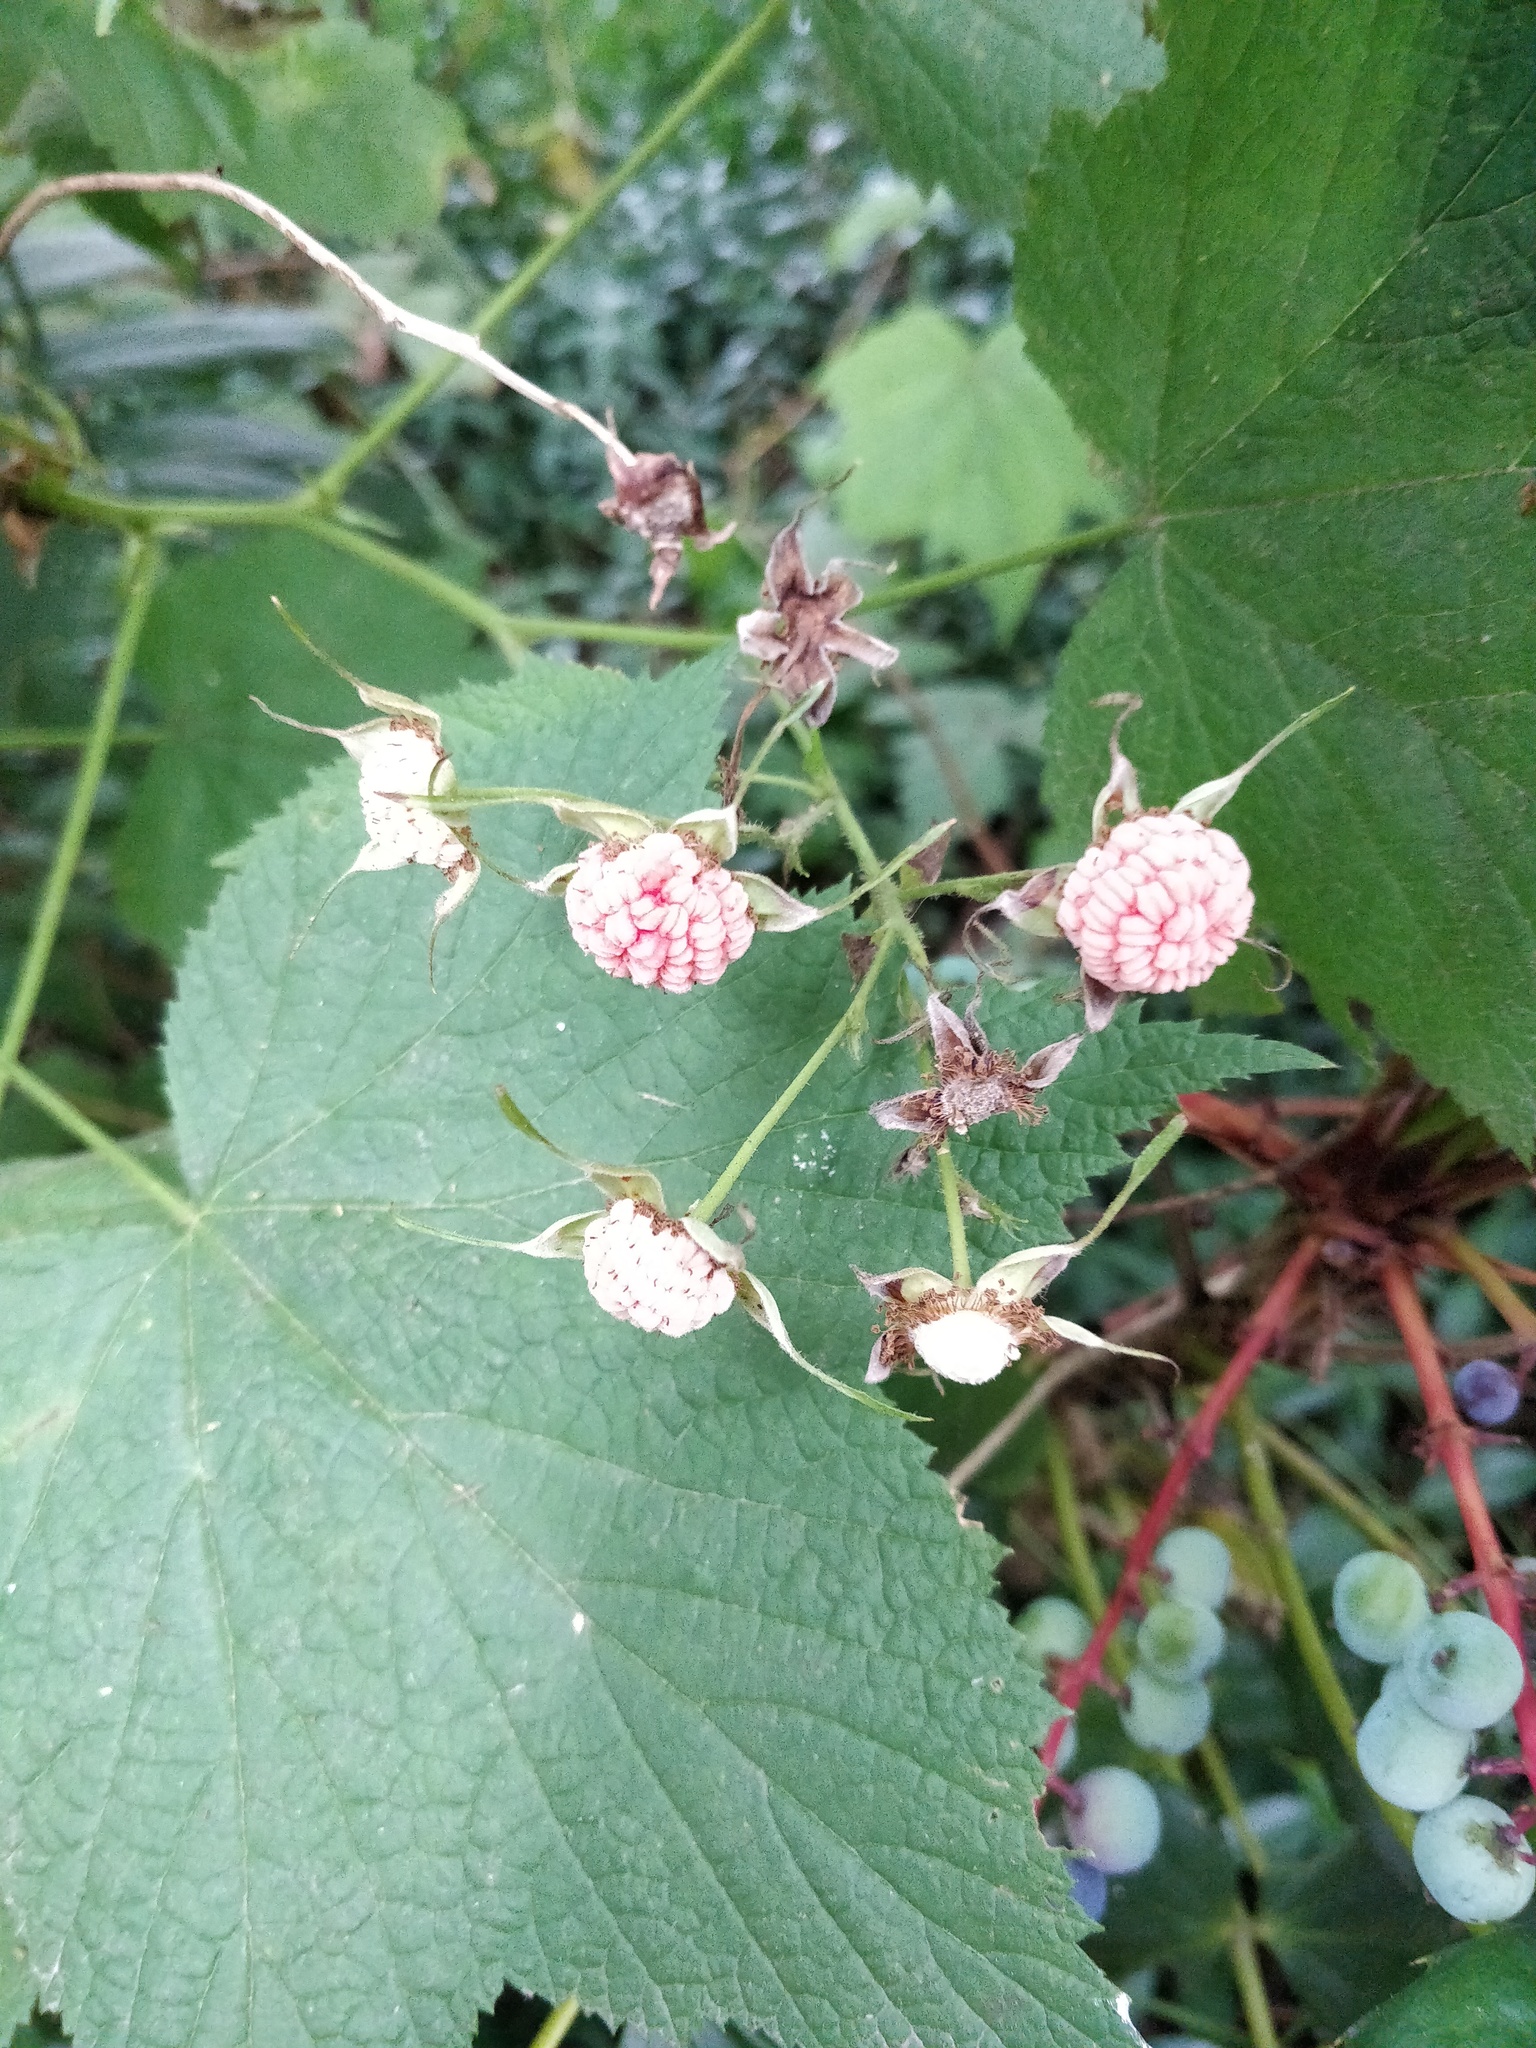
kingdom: Plantae
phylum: Tracheophyta
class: Magnoliopsida
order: Rosales
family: Rosaceae
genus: Rubus
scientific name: Rubus parviflorus
